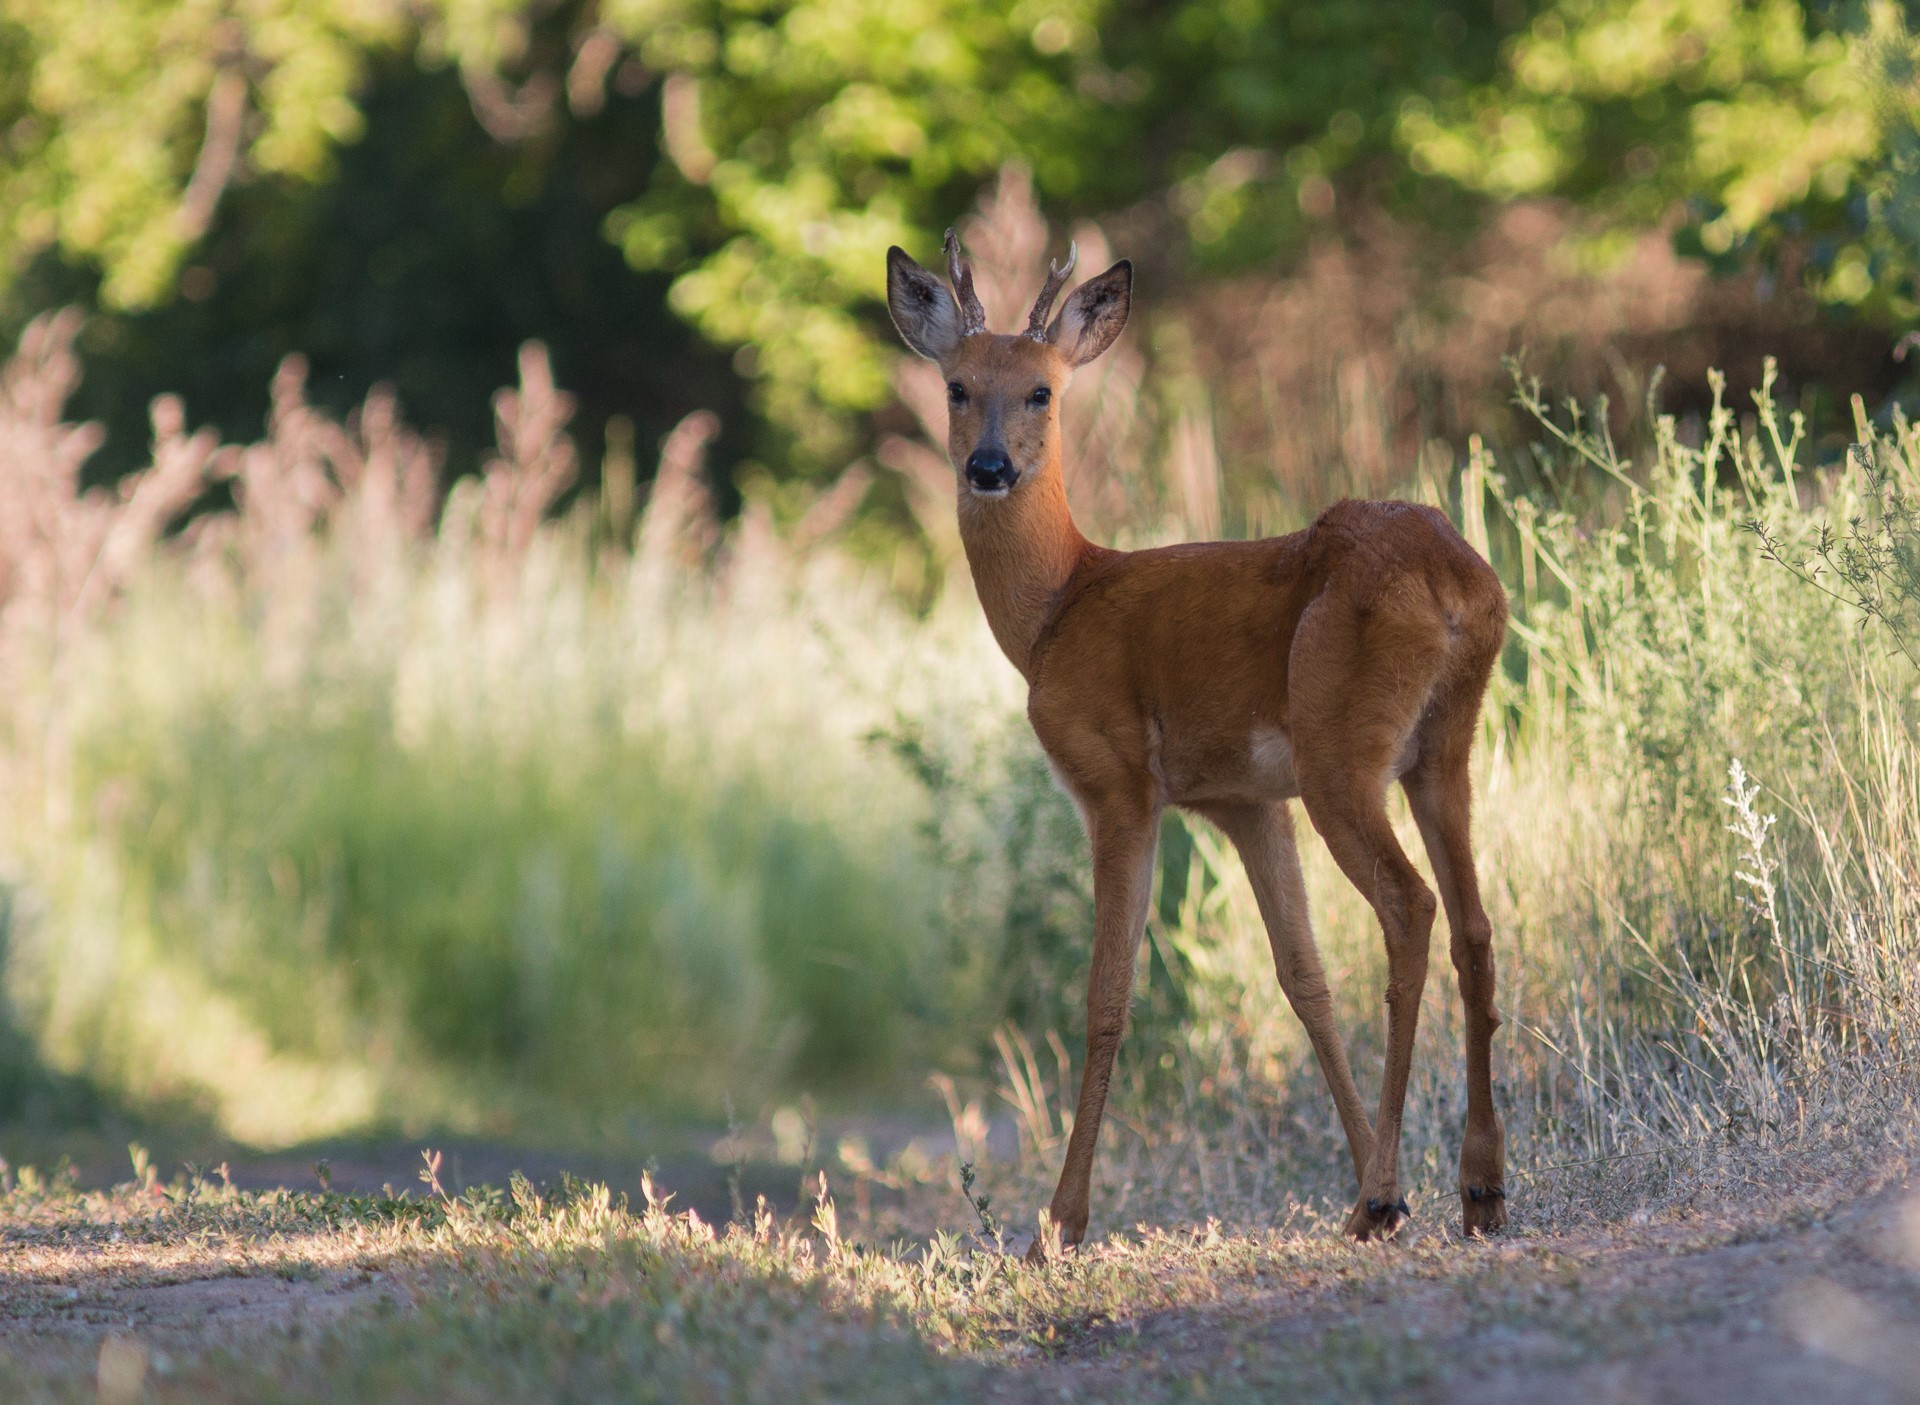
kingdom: Animalia
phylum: Chordata
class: Mammalia
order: Artiodactyla
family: Cervidae
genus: Capreolus
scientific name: Capreolus pygargus
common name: Siberian roe
